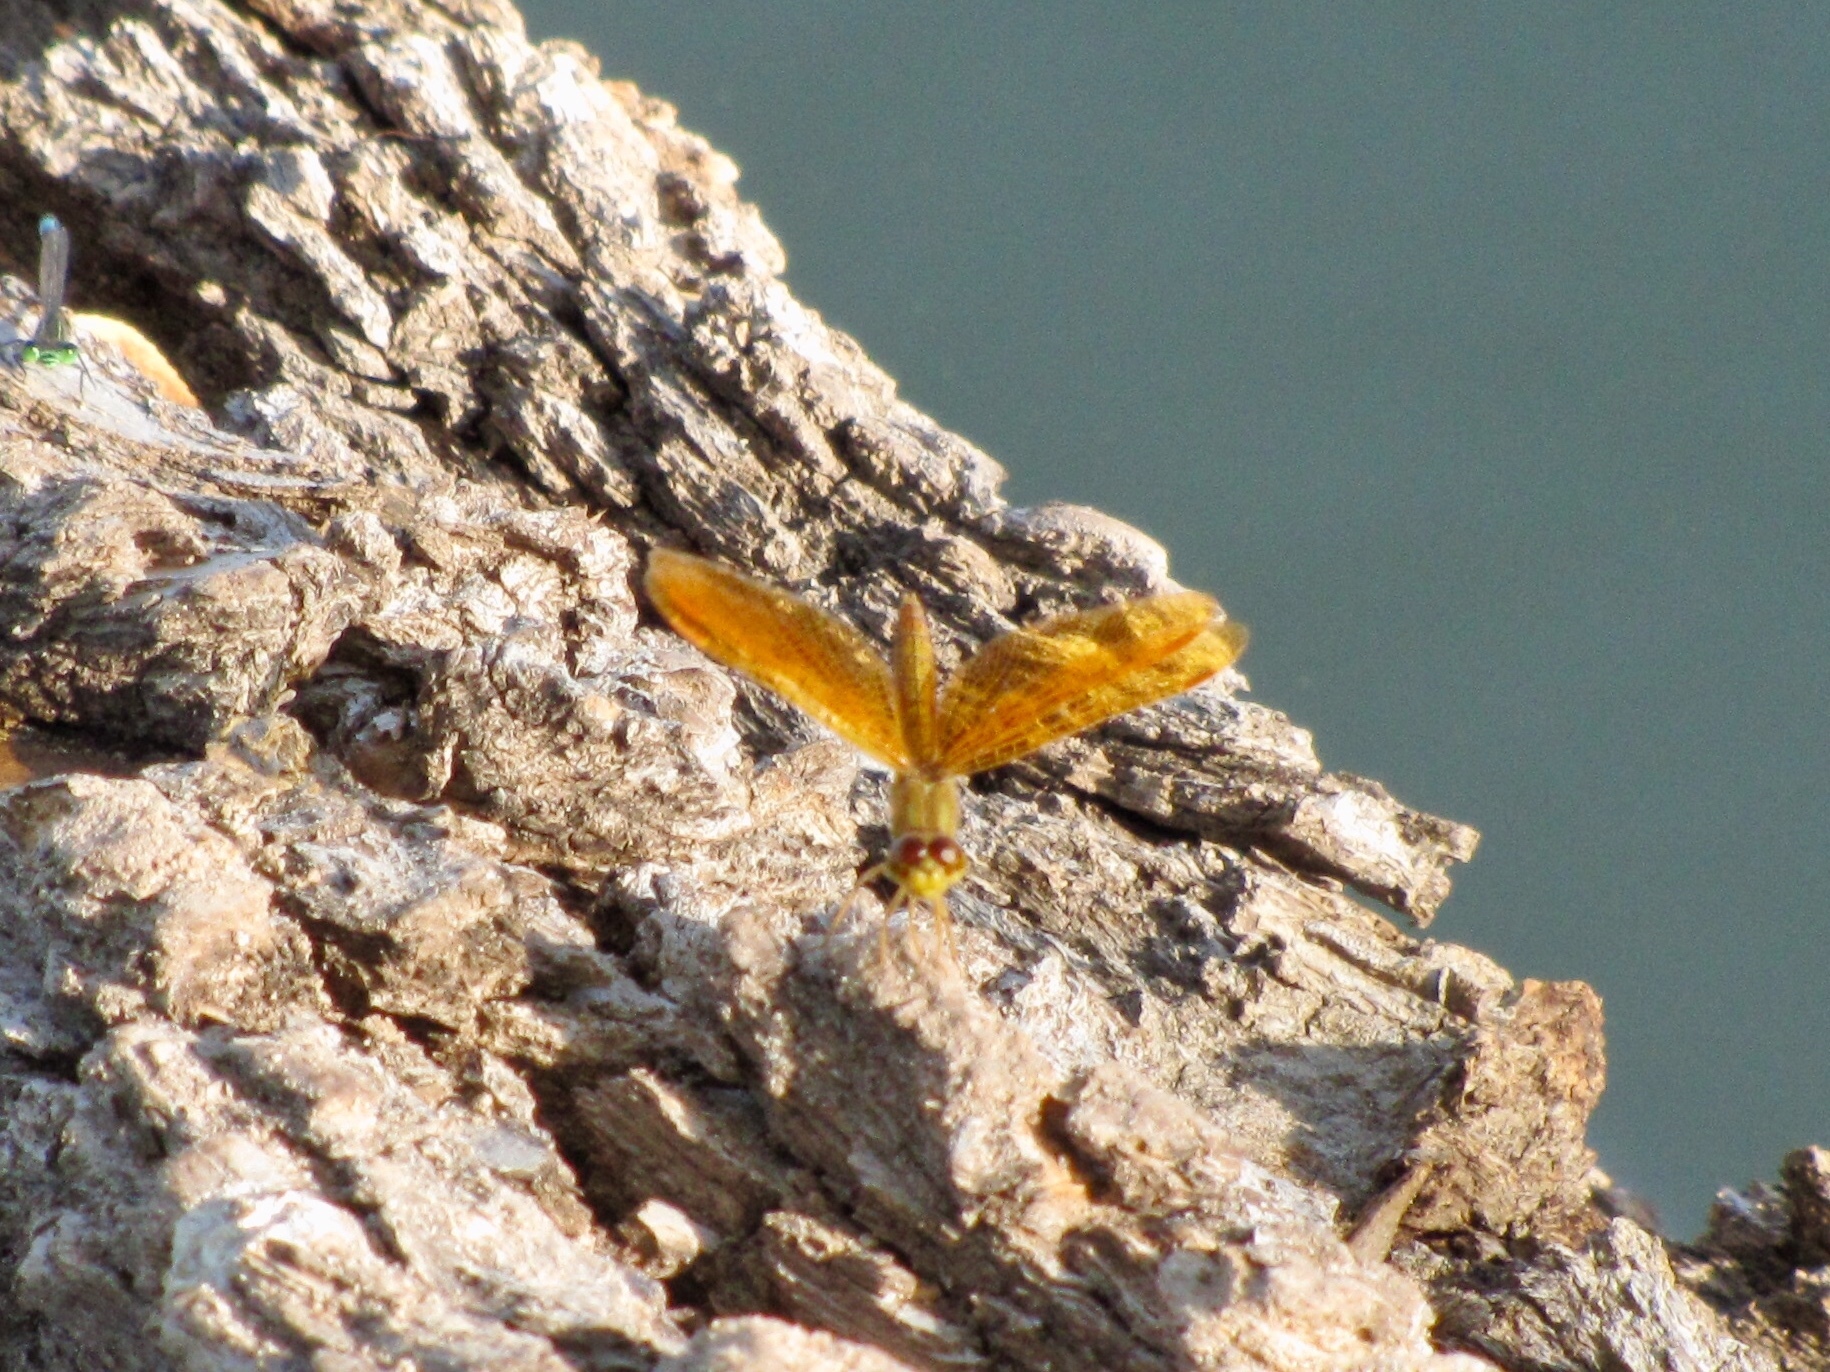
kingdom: Animalia
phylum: Arthropoda
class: Insecta
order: Odonata
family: Libellulidae
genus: Perithemis
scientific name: Perithemis intensa
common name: Mexican amberwing
